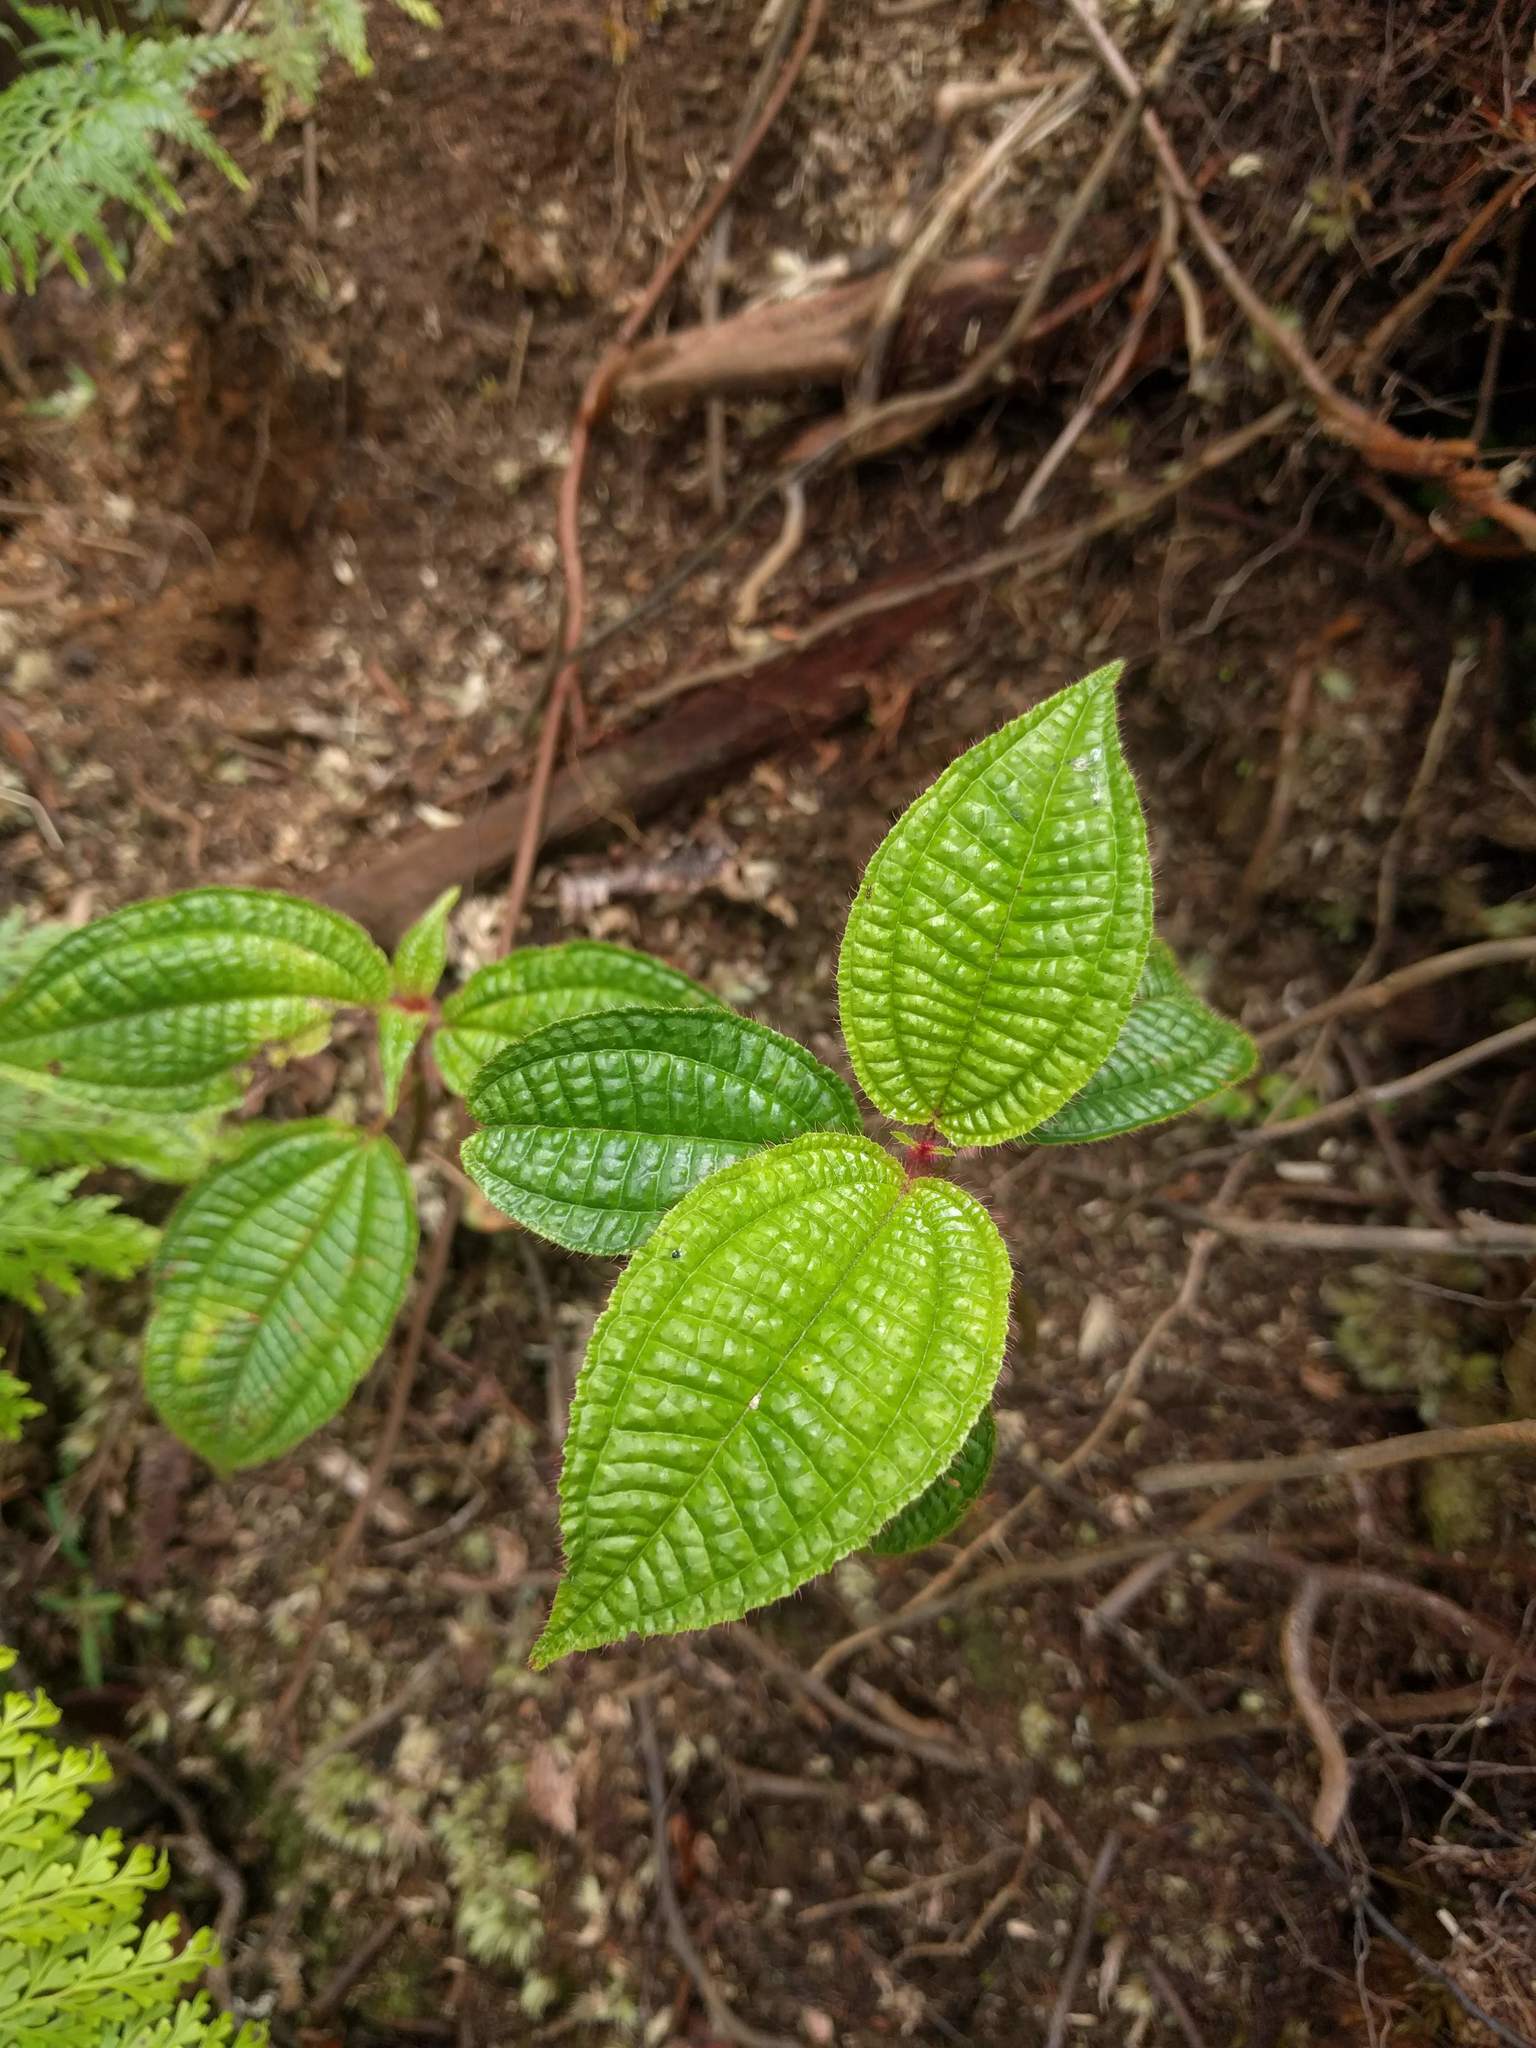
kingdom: Plantae
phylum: Tracheophyta
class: Magnoliopsida
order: Myrtales
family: Melastomataceae
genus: Miconia
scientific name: Miconia crenata
